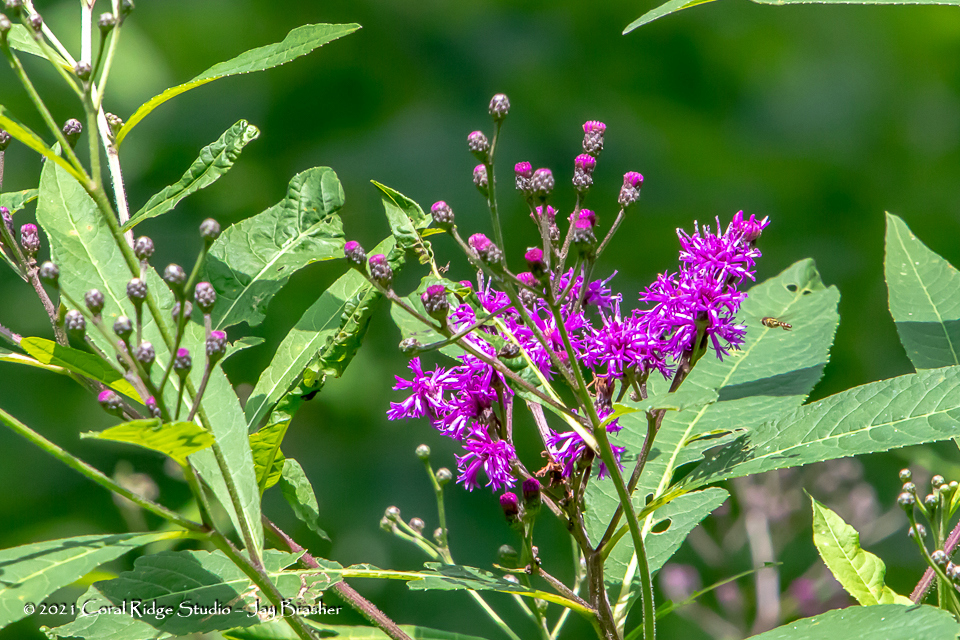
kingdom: Plantae
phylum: Tracheophyta
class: Magnoliopsida
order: Asterales
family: Asteraceae
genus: Vernonia
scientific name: Vernonia gigantea
